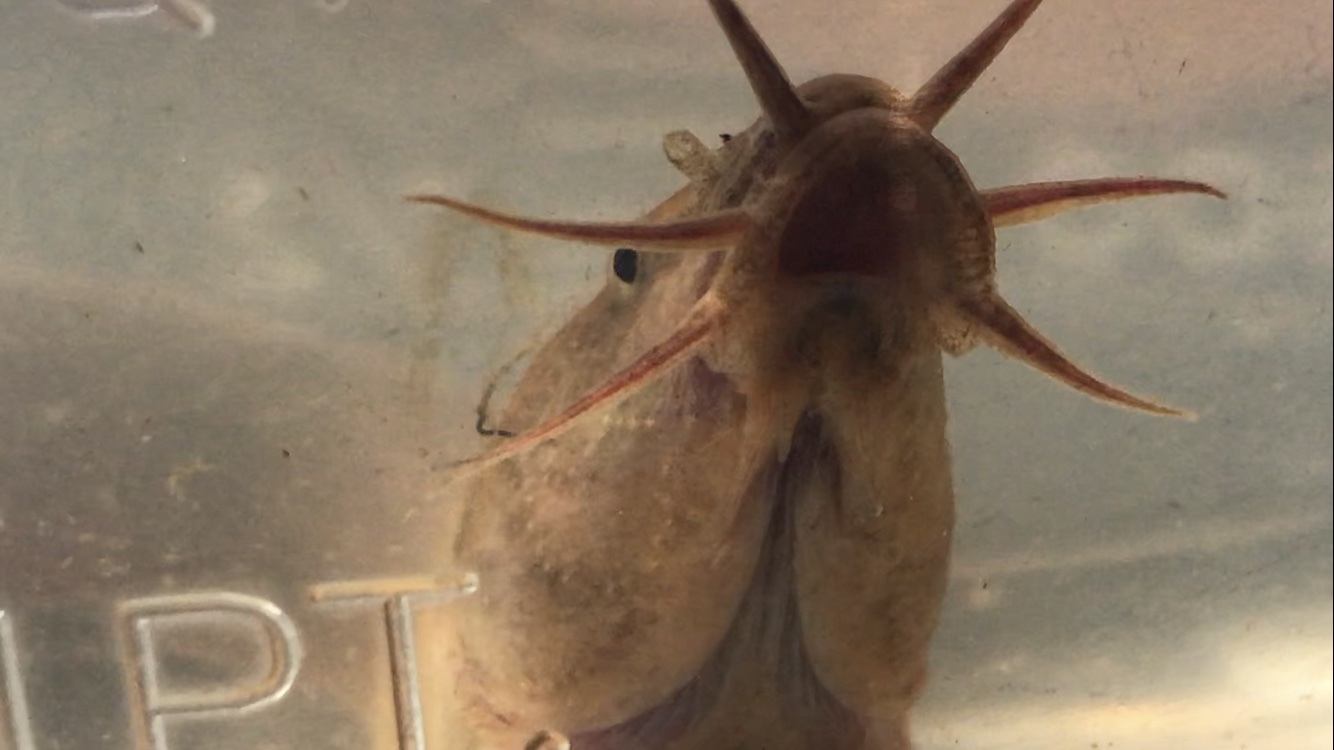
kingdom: Animalia
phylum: Chordata
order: Cypriniformes
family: Cobitidae
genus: Misgurnus
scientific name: Misgurnus anguillicaudatus
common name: Oriental weatherfish
